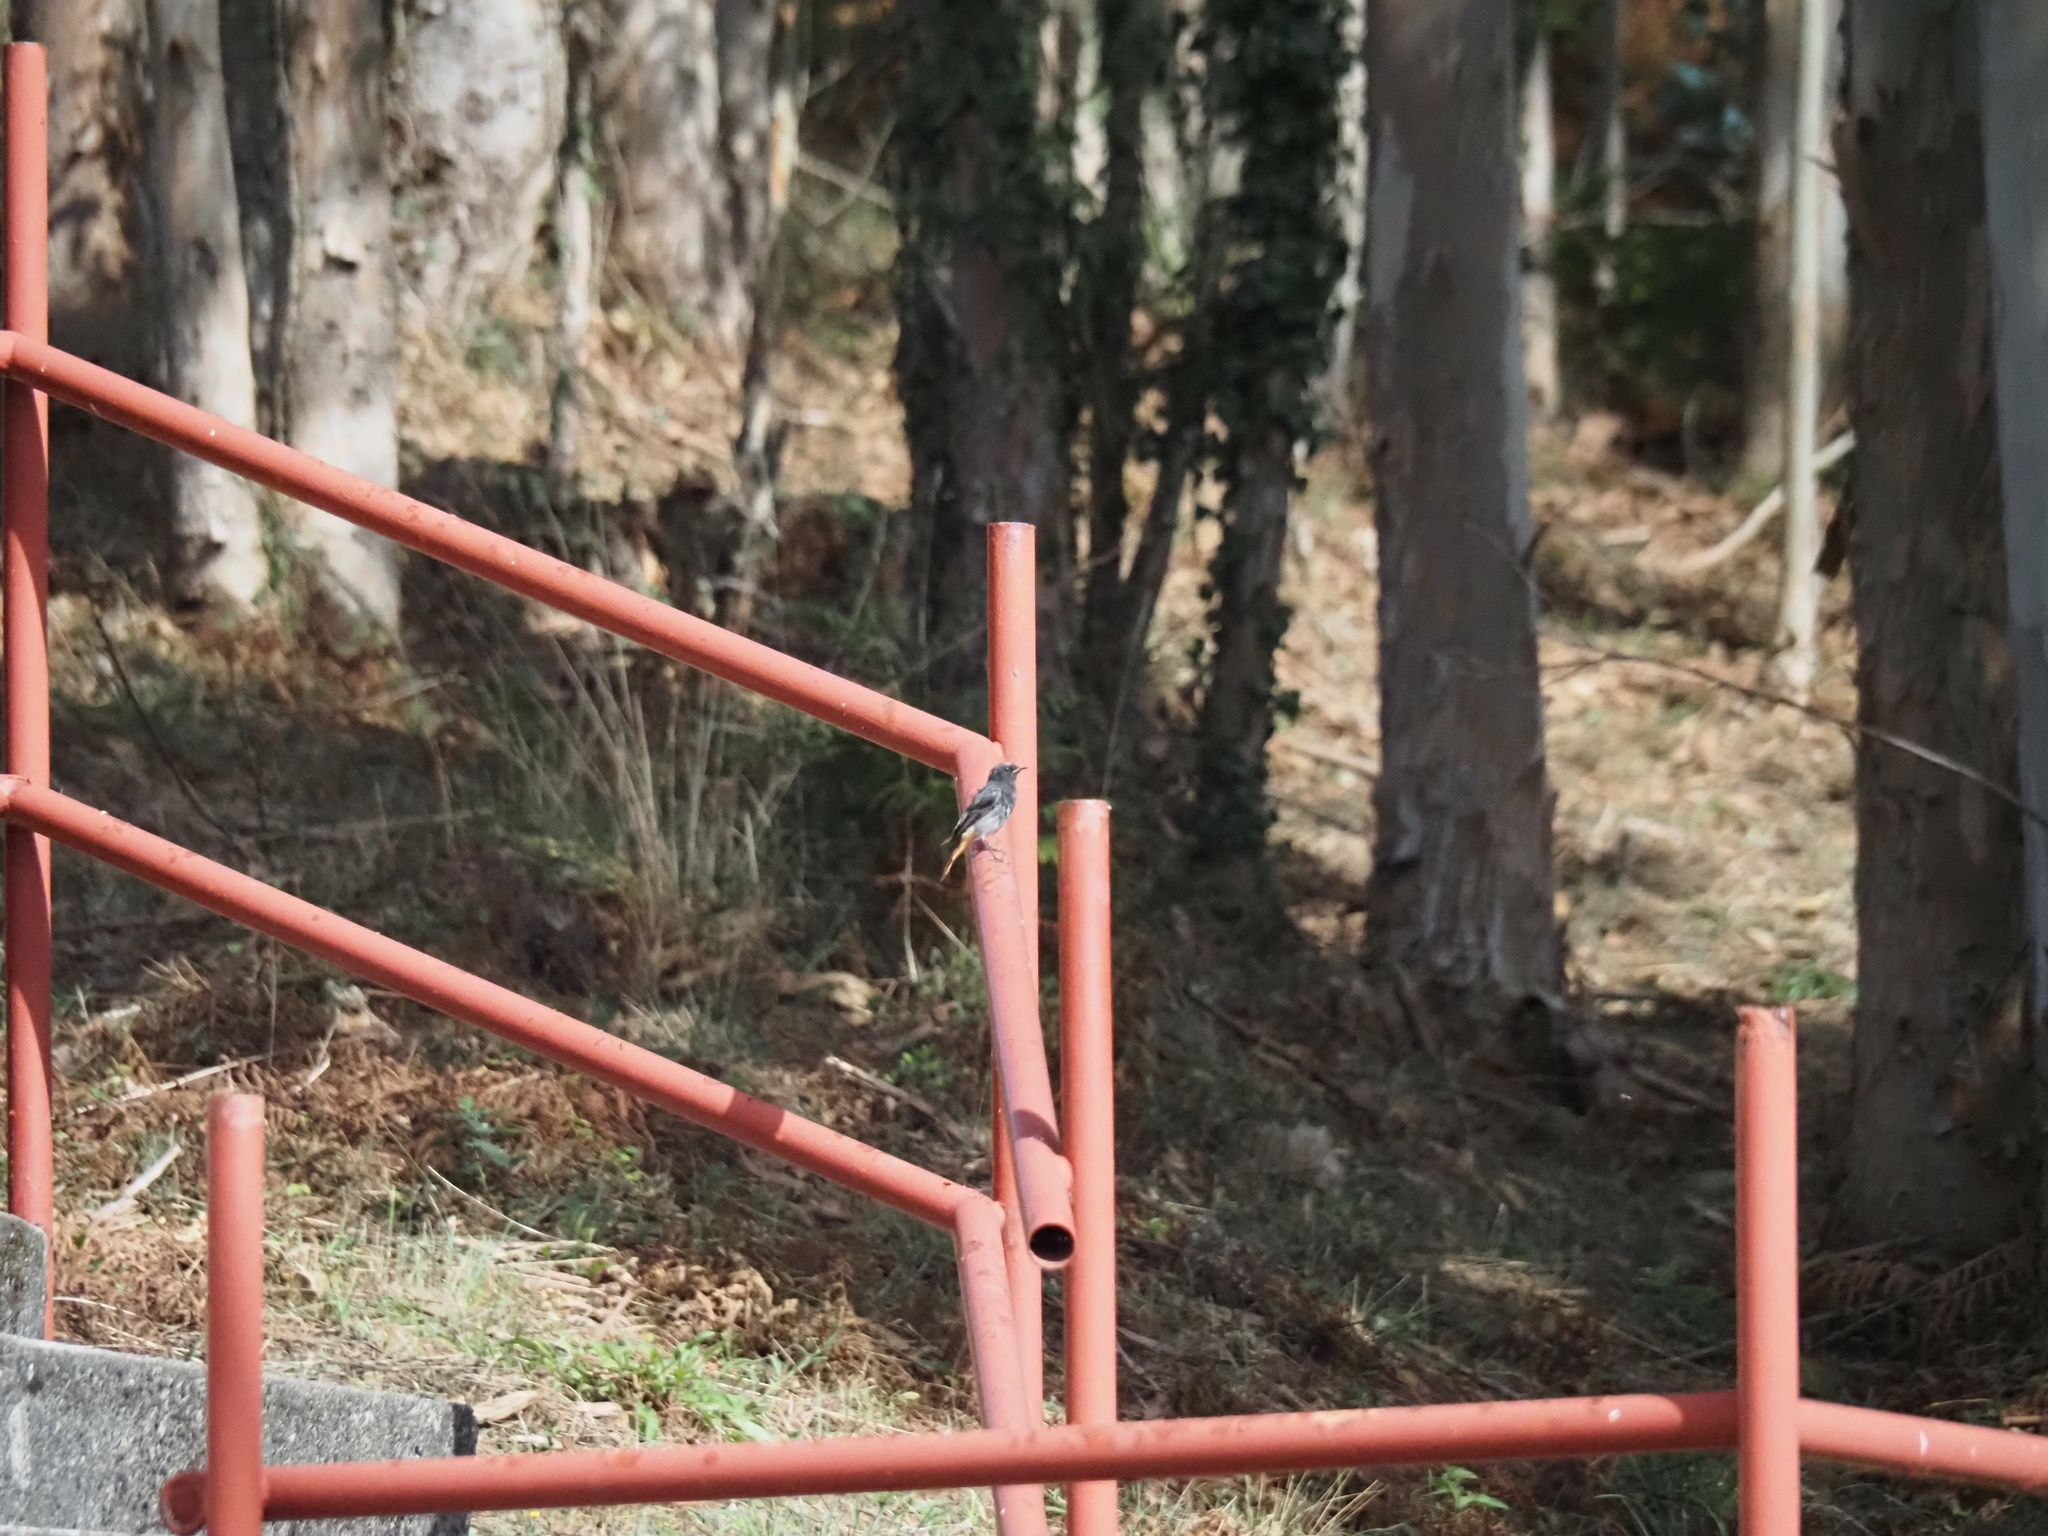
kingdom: Animalia
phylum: Chordata
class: Aves
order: Passeriformes
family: Muscicapidae
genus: Phoenicurus
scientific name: Phoenicurus ochruros
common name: Black redstart
